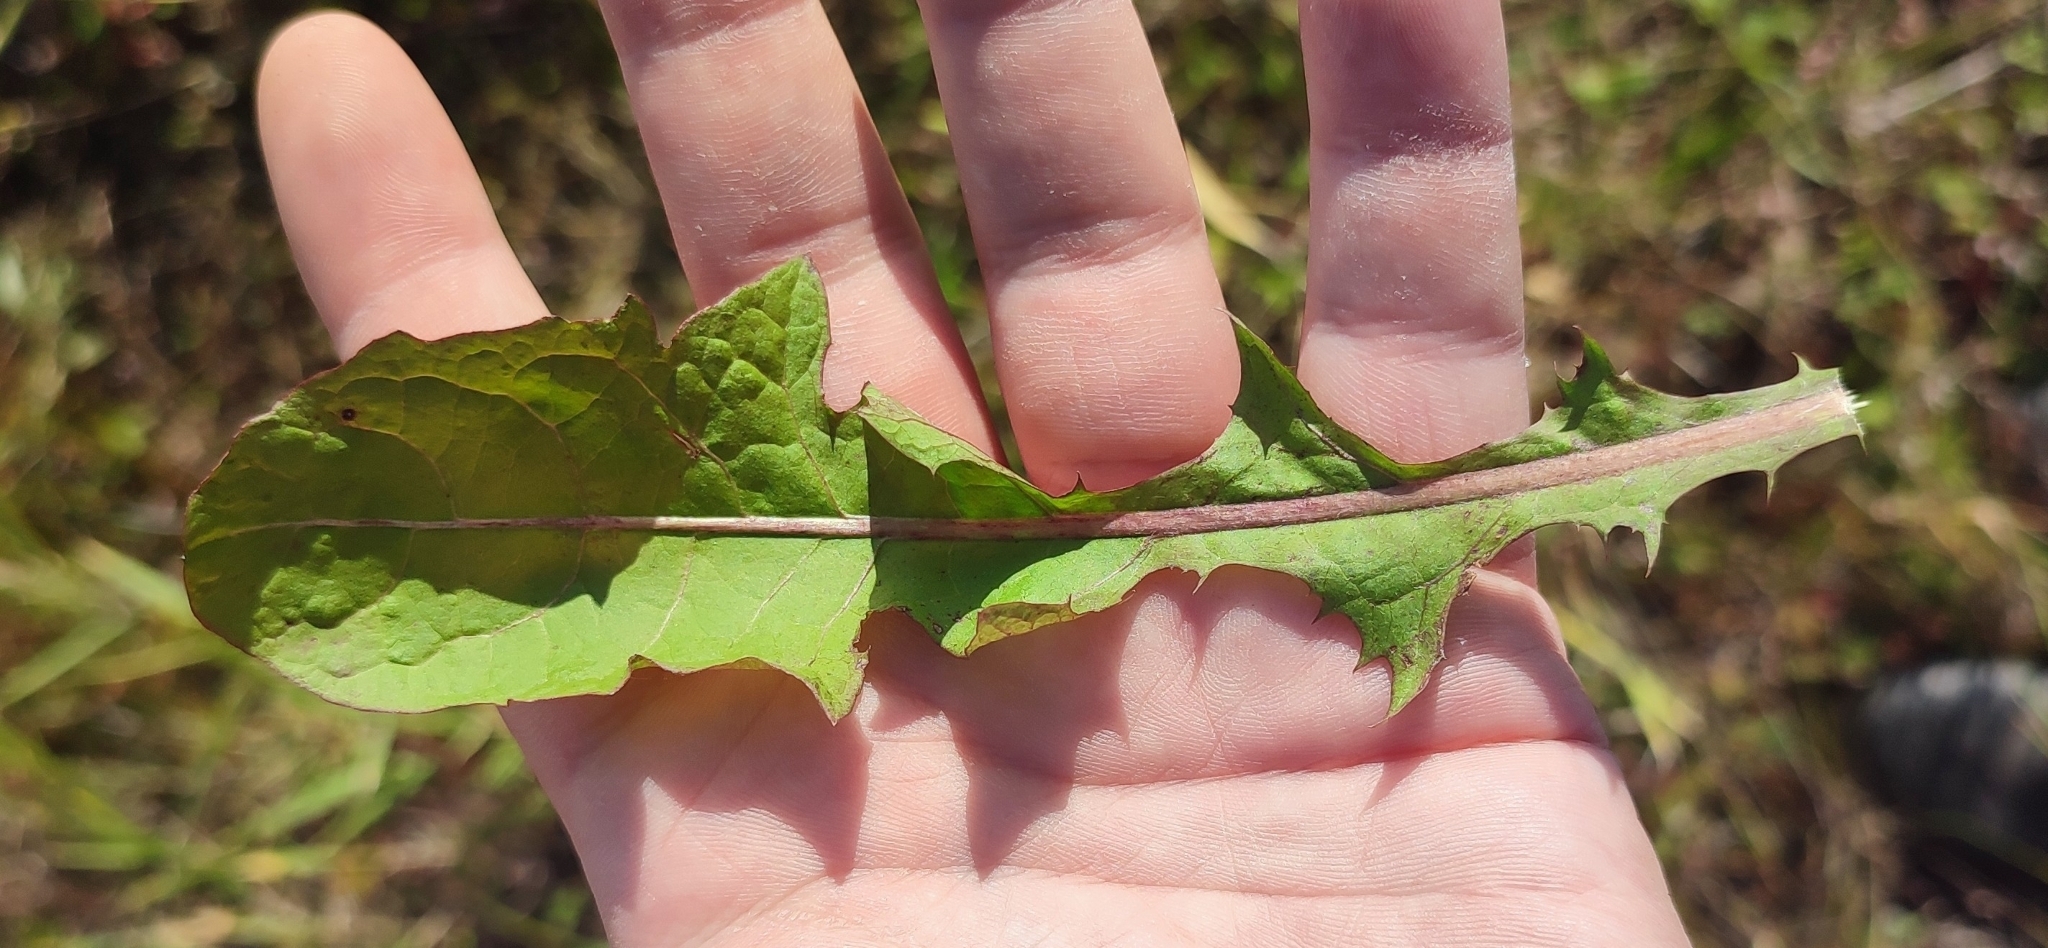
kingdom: Plantae
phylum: Tracheophyta
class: Magnoliopsida
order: Asterales
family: Asteraceae
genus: Taraxacum
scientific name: Taraxacum officinale
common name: Common dandelion
